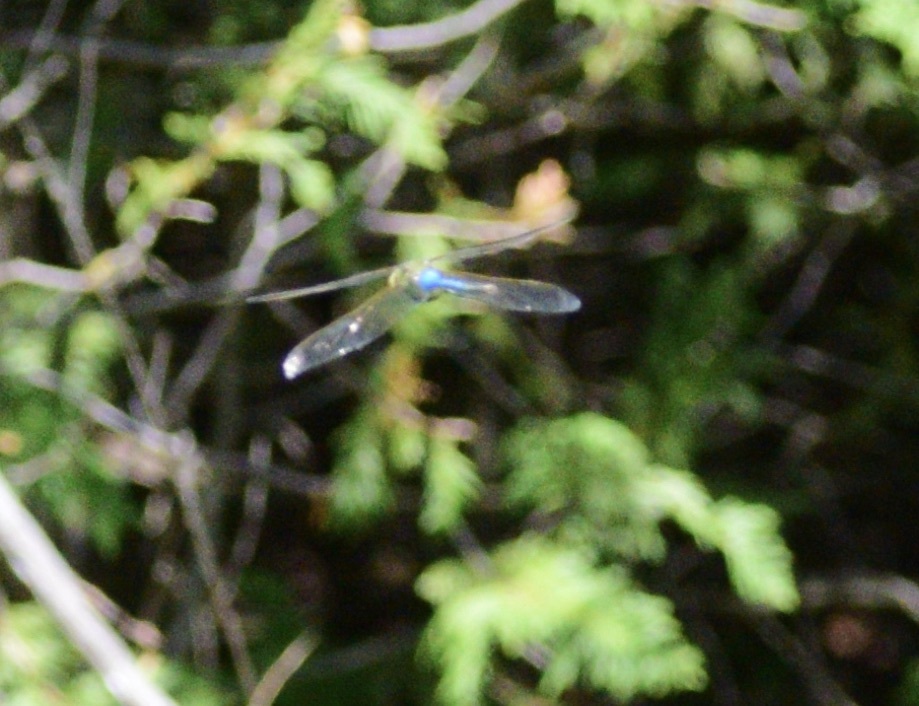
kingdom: Animalia
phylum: Arthropoda
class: Insecta
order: Odonata
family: Aeshnidae
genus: Anax
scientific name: Anax junius
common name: Common green darner
